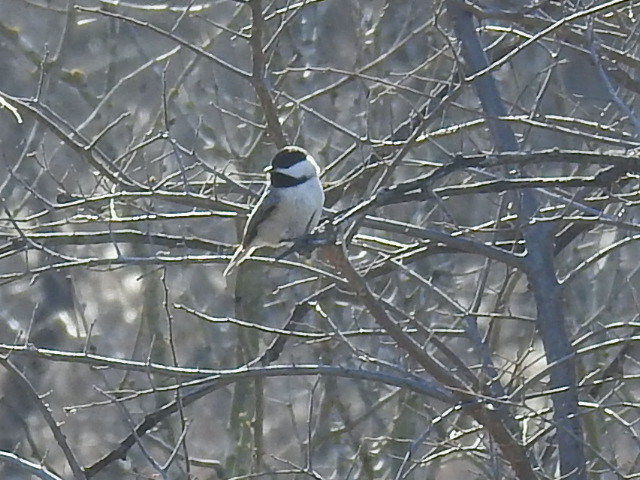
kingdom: Animalia
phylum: Chordata
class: Aves
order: Passeriformes
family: Paridae
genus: Poecile
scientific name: Poecile carolinensis
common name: Carolina chickadee
